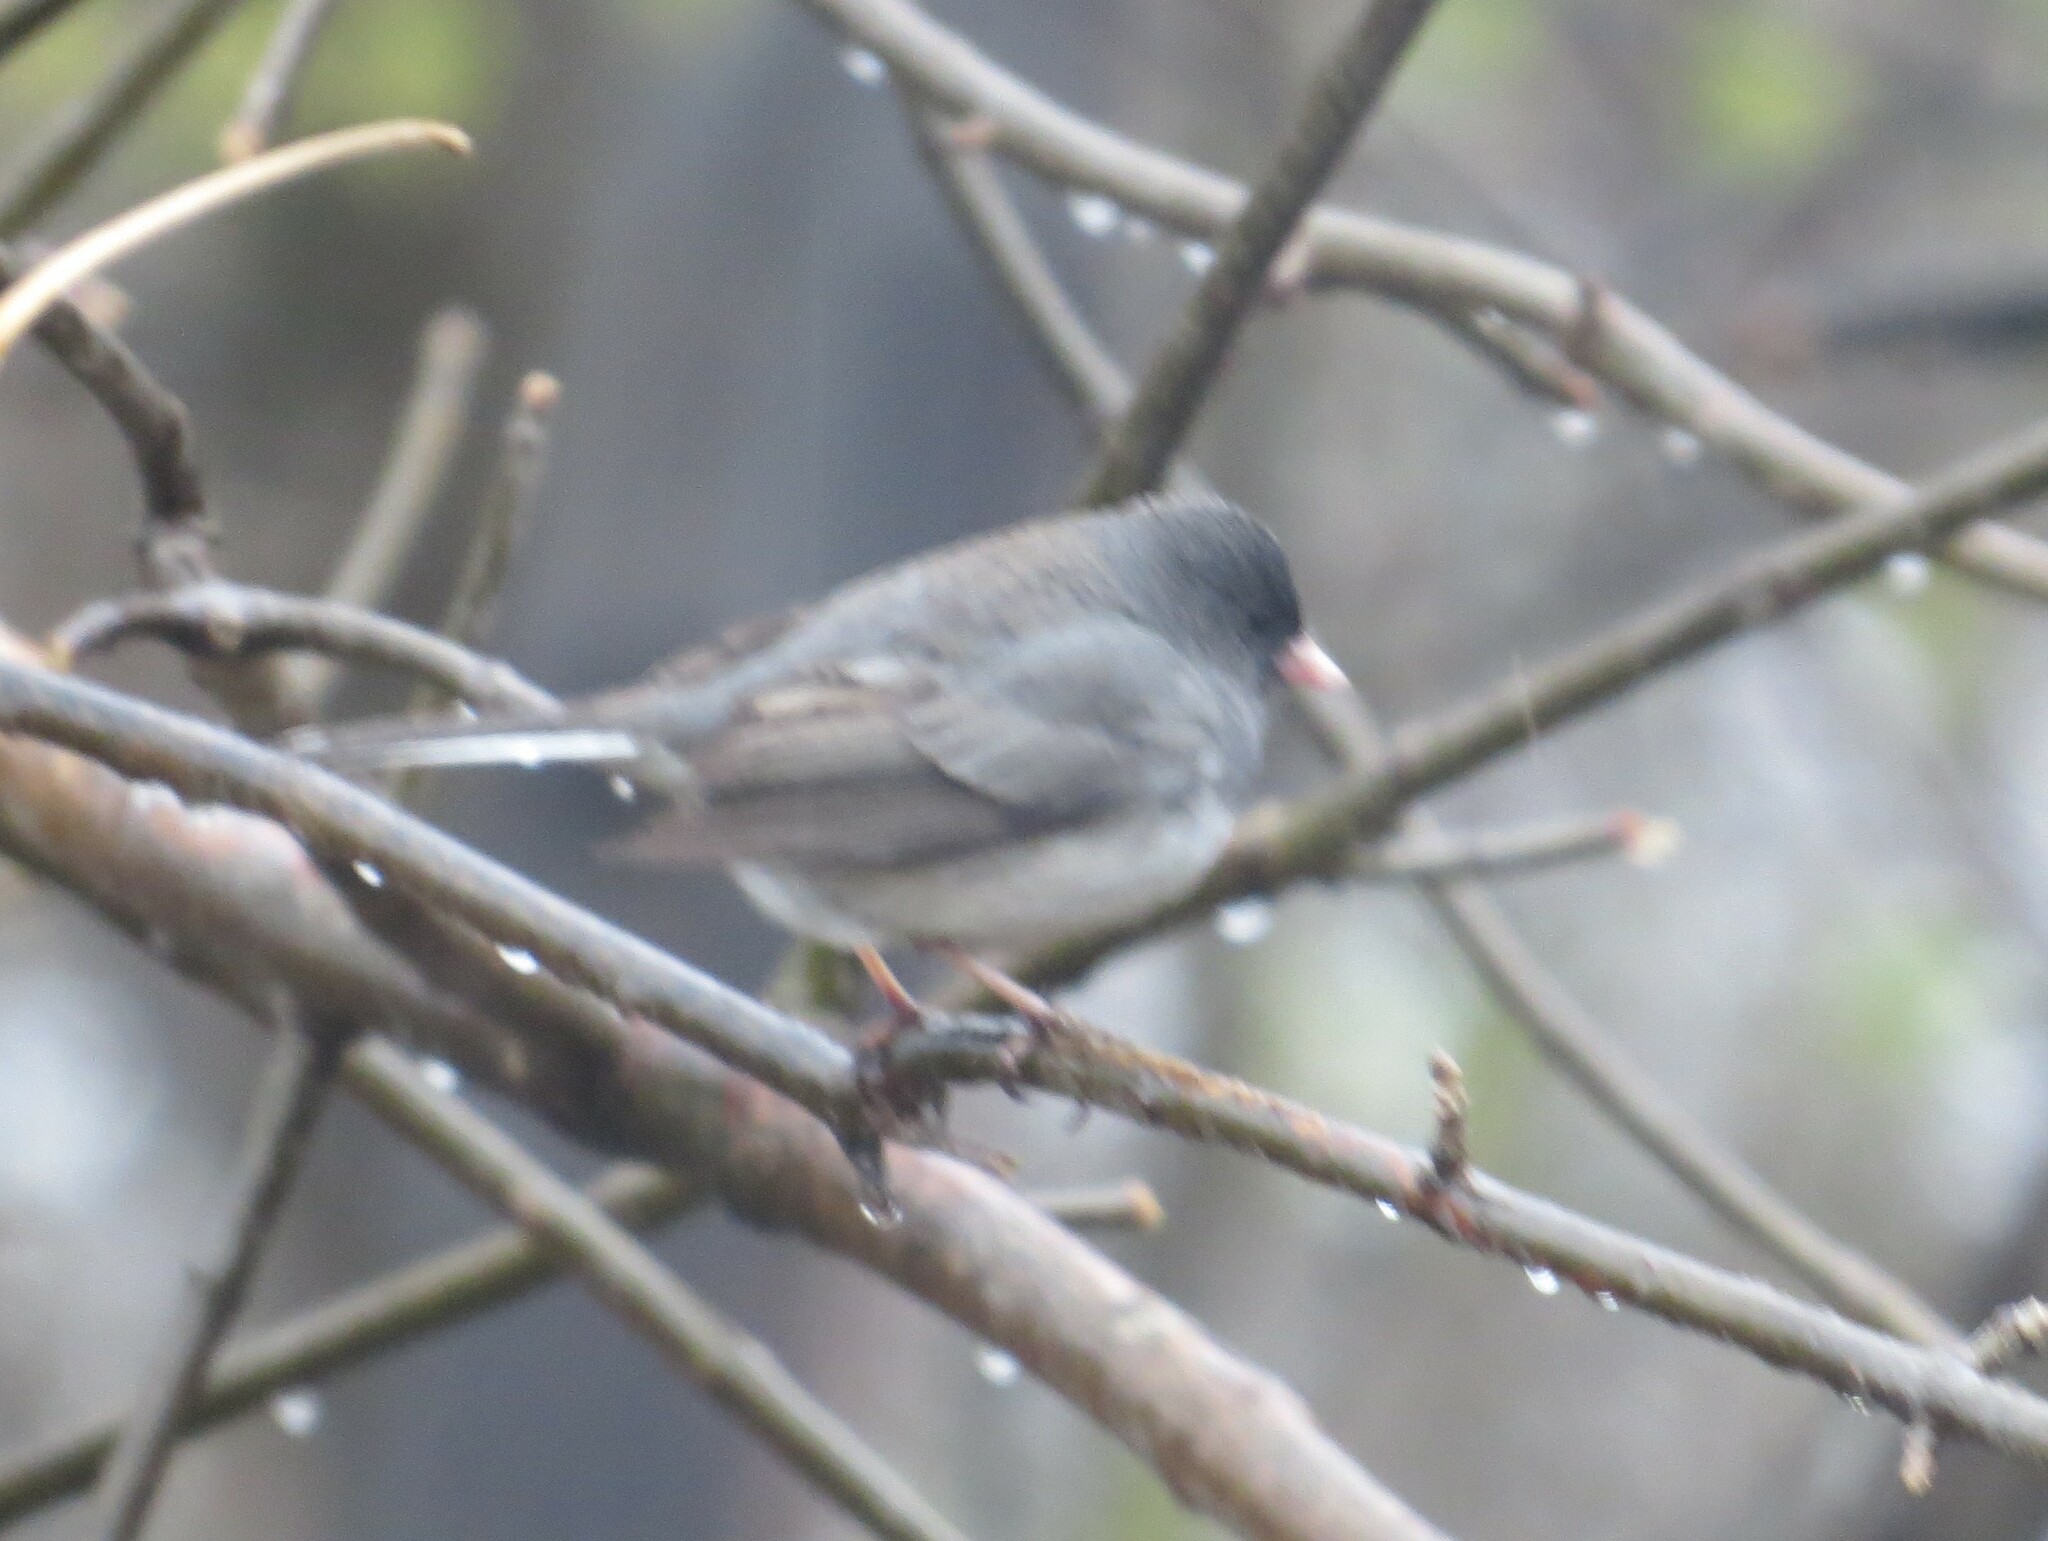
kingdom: Animalia
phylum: Chordata
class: Aves
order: Passeriformes
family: Passerellidae
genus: Junco
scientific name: Junco hyemalis
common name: Dark-eyed junco
